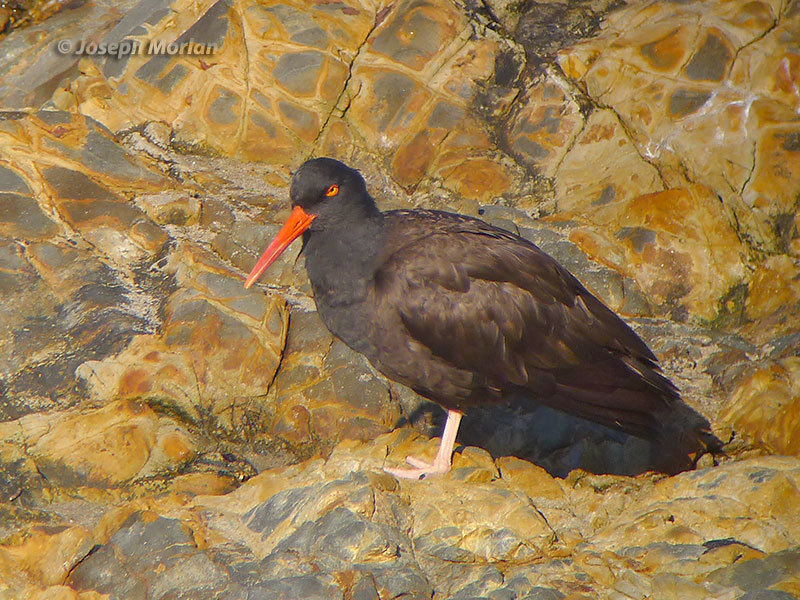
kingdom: Animalia
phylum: Chordata
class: Aves
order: Charadriiformes
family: Haematopodidae
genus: Haematopus
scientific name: Haematopus bachmani
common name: Black oystercatcher
